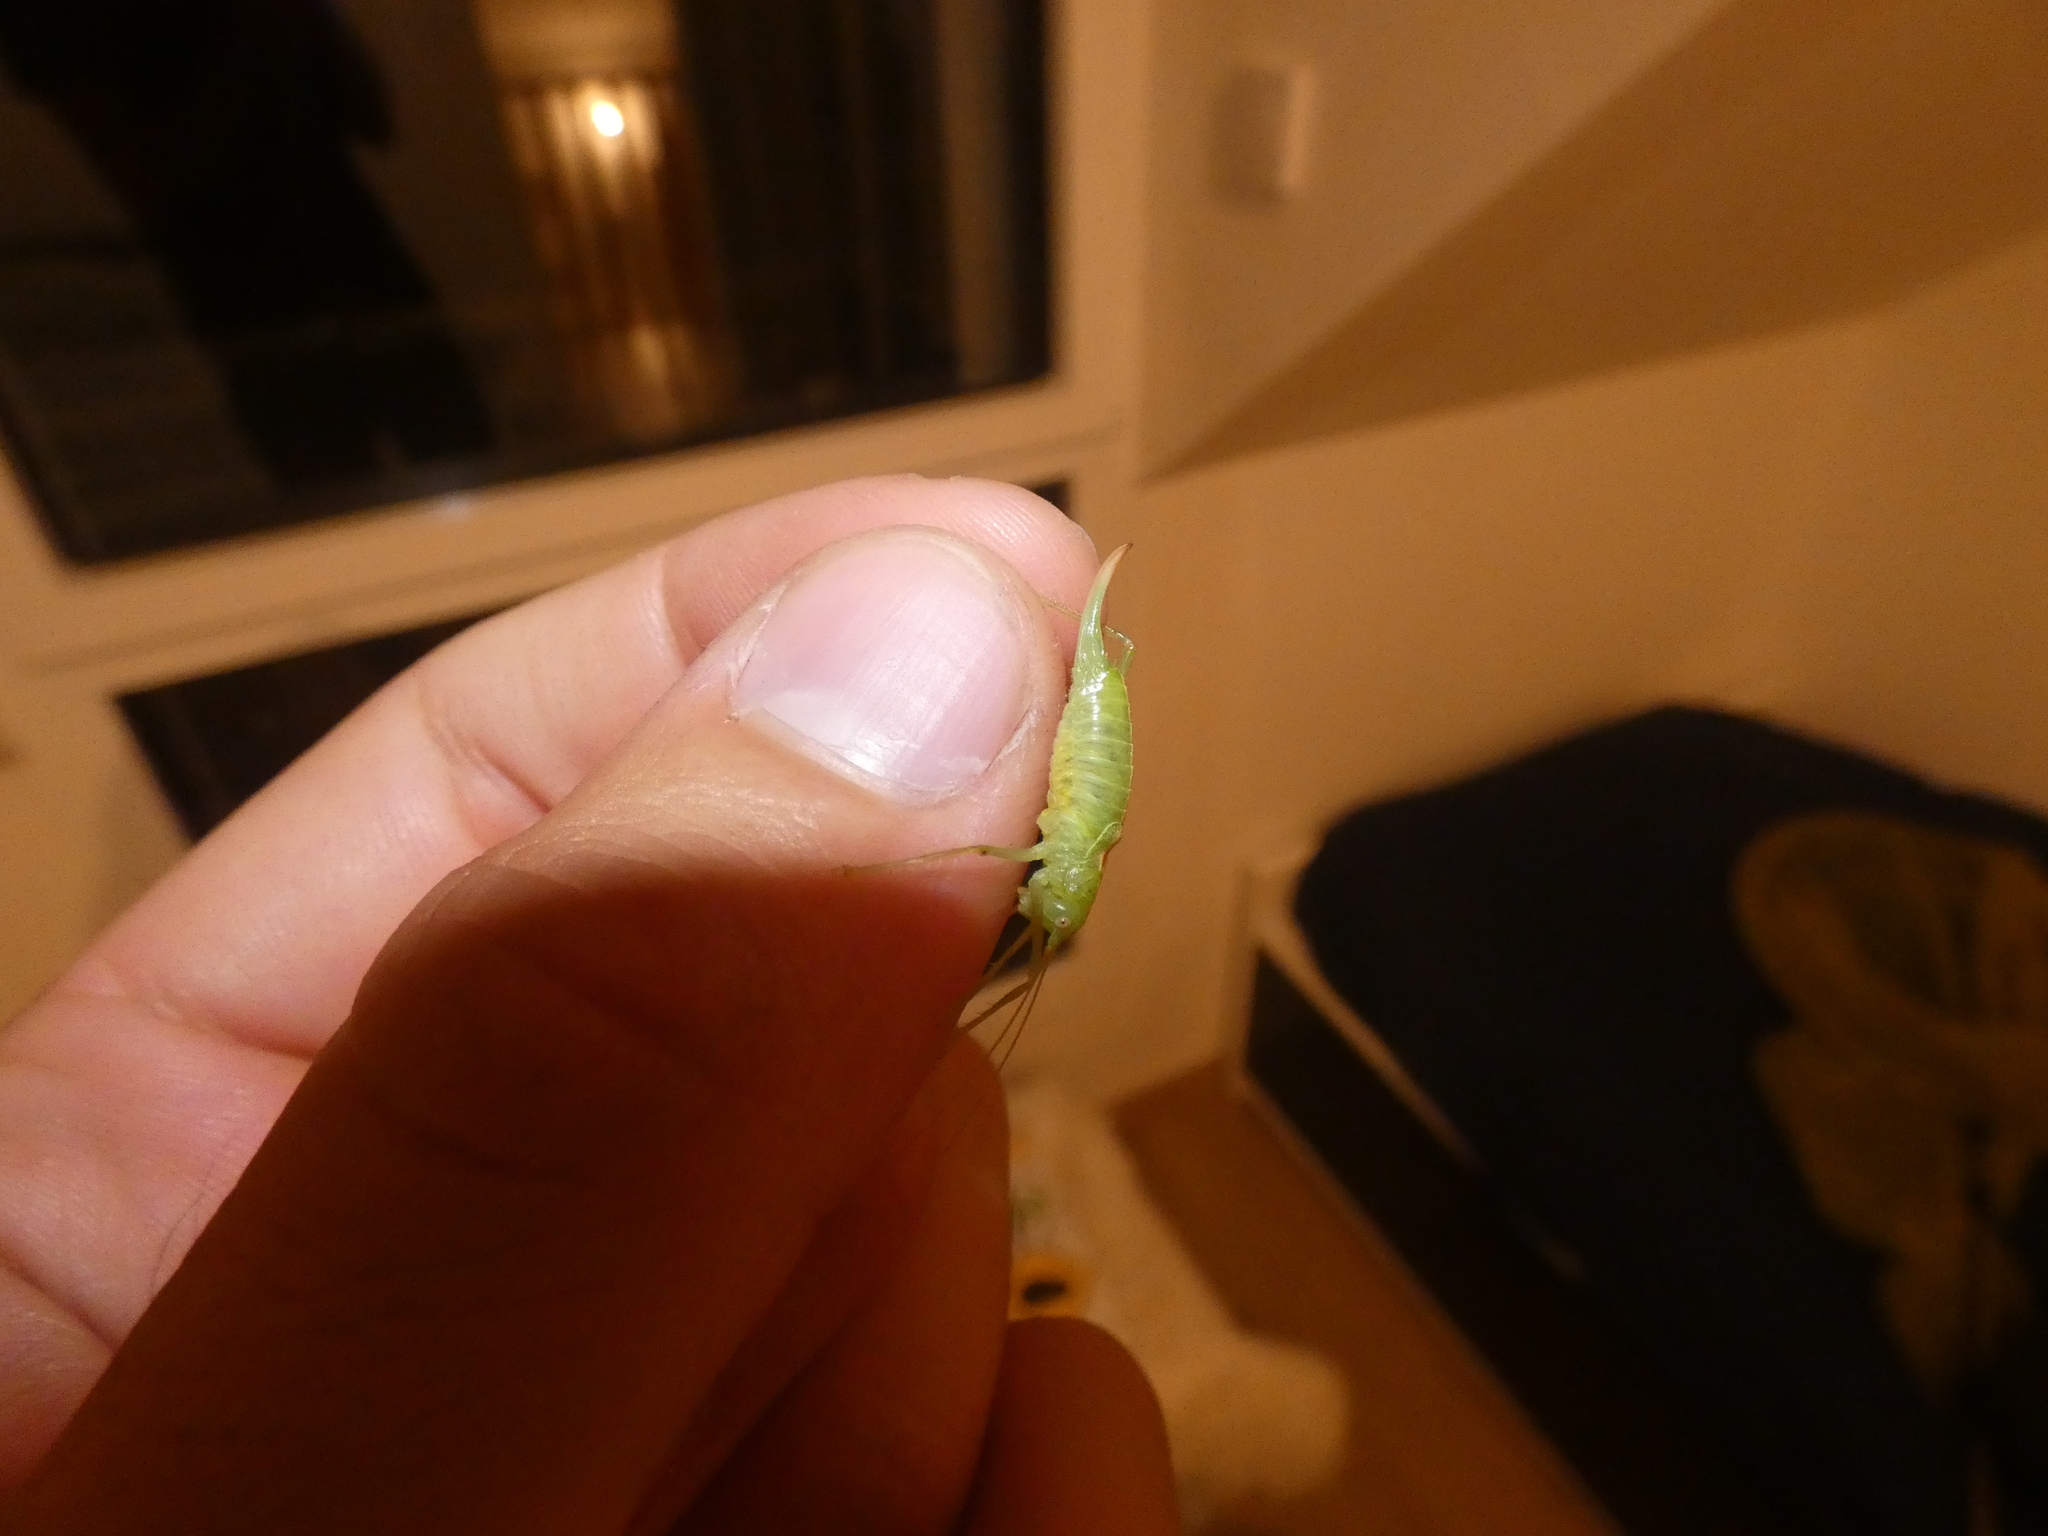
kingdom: Animalia
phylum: Arthropoda
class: Insecta
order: Orthoptera
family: Tettigoniidae
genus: Meconema
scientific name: Meconema meridionale
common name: Southern oak bush-cricket
